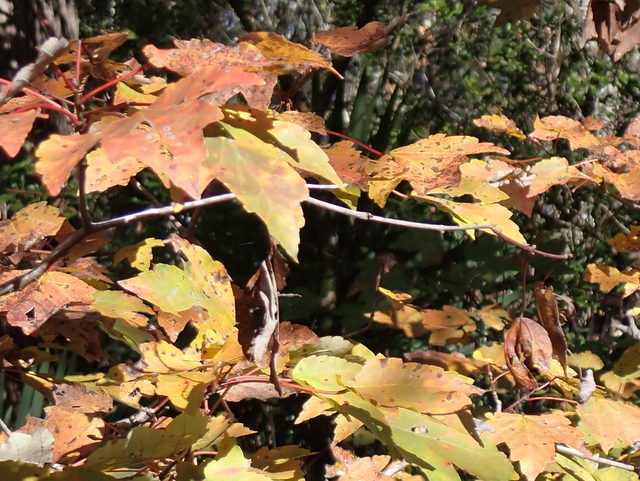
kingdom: Plantae
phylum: Tracheophyta
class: Magnoliopsida
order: Sapindales
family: Sapindaceae
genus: Acer
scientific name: Acer rubrum
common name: Red maple
